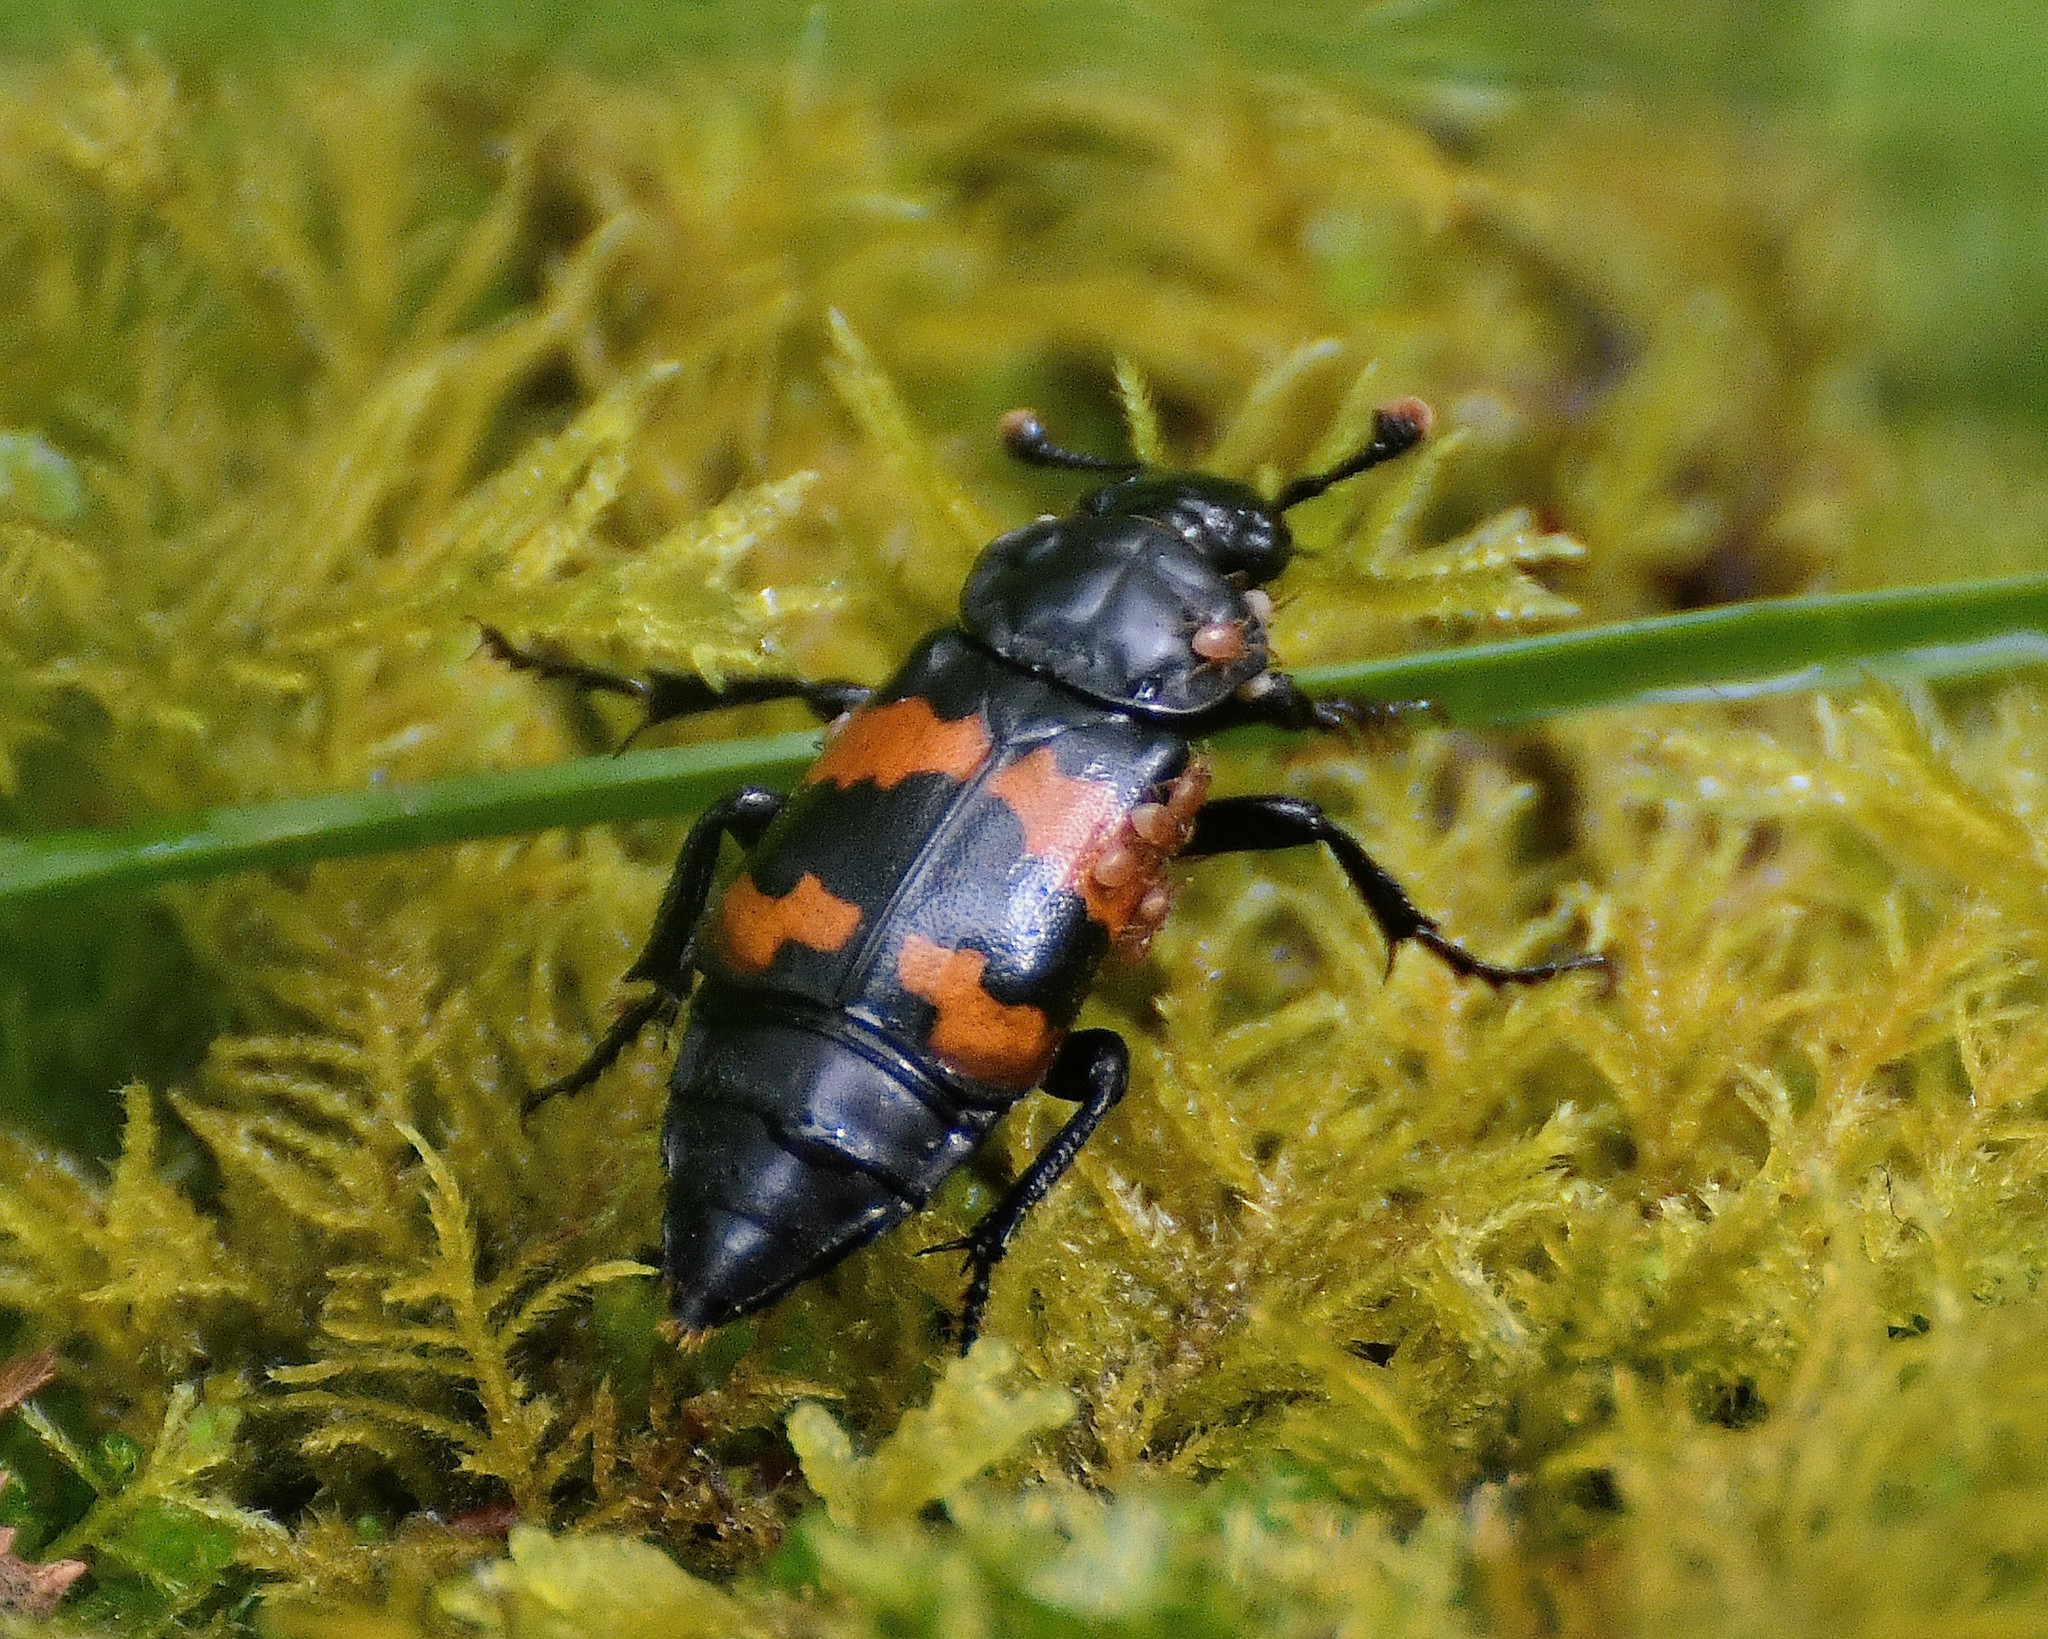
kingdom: Animalia
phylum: Arthropoda
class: Insecta
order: Coleoptera
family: Staphylinidae
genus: Nicrophorus
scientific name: Nicrophorus investigator
